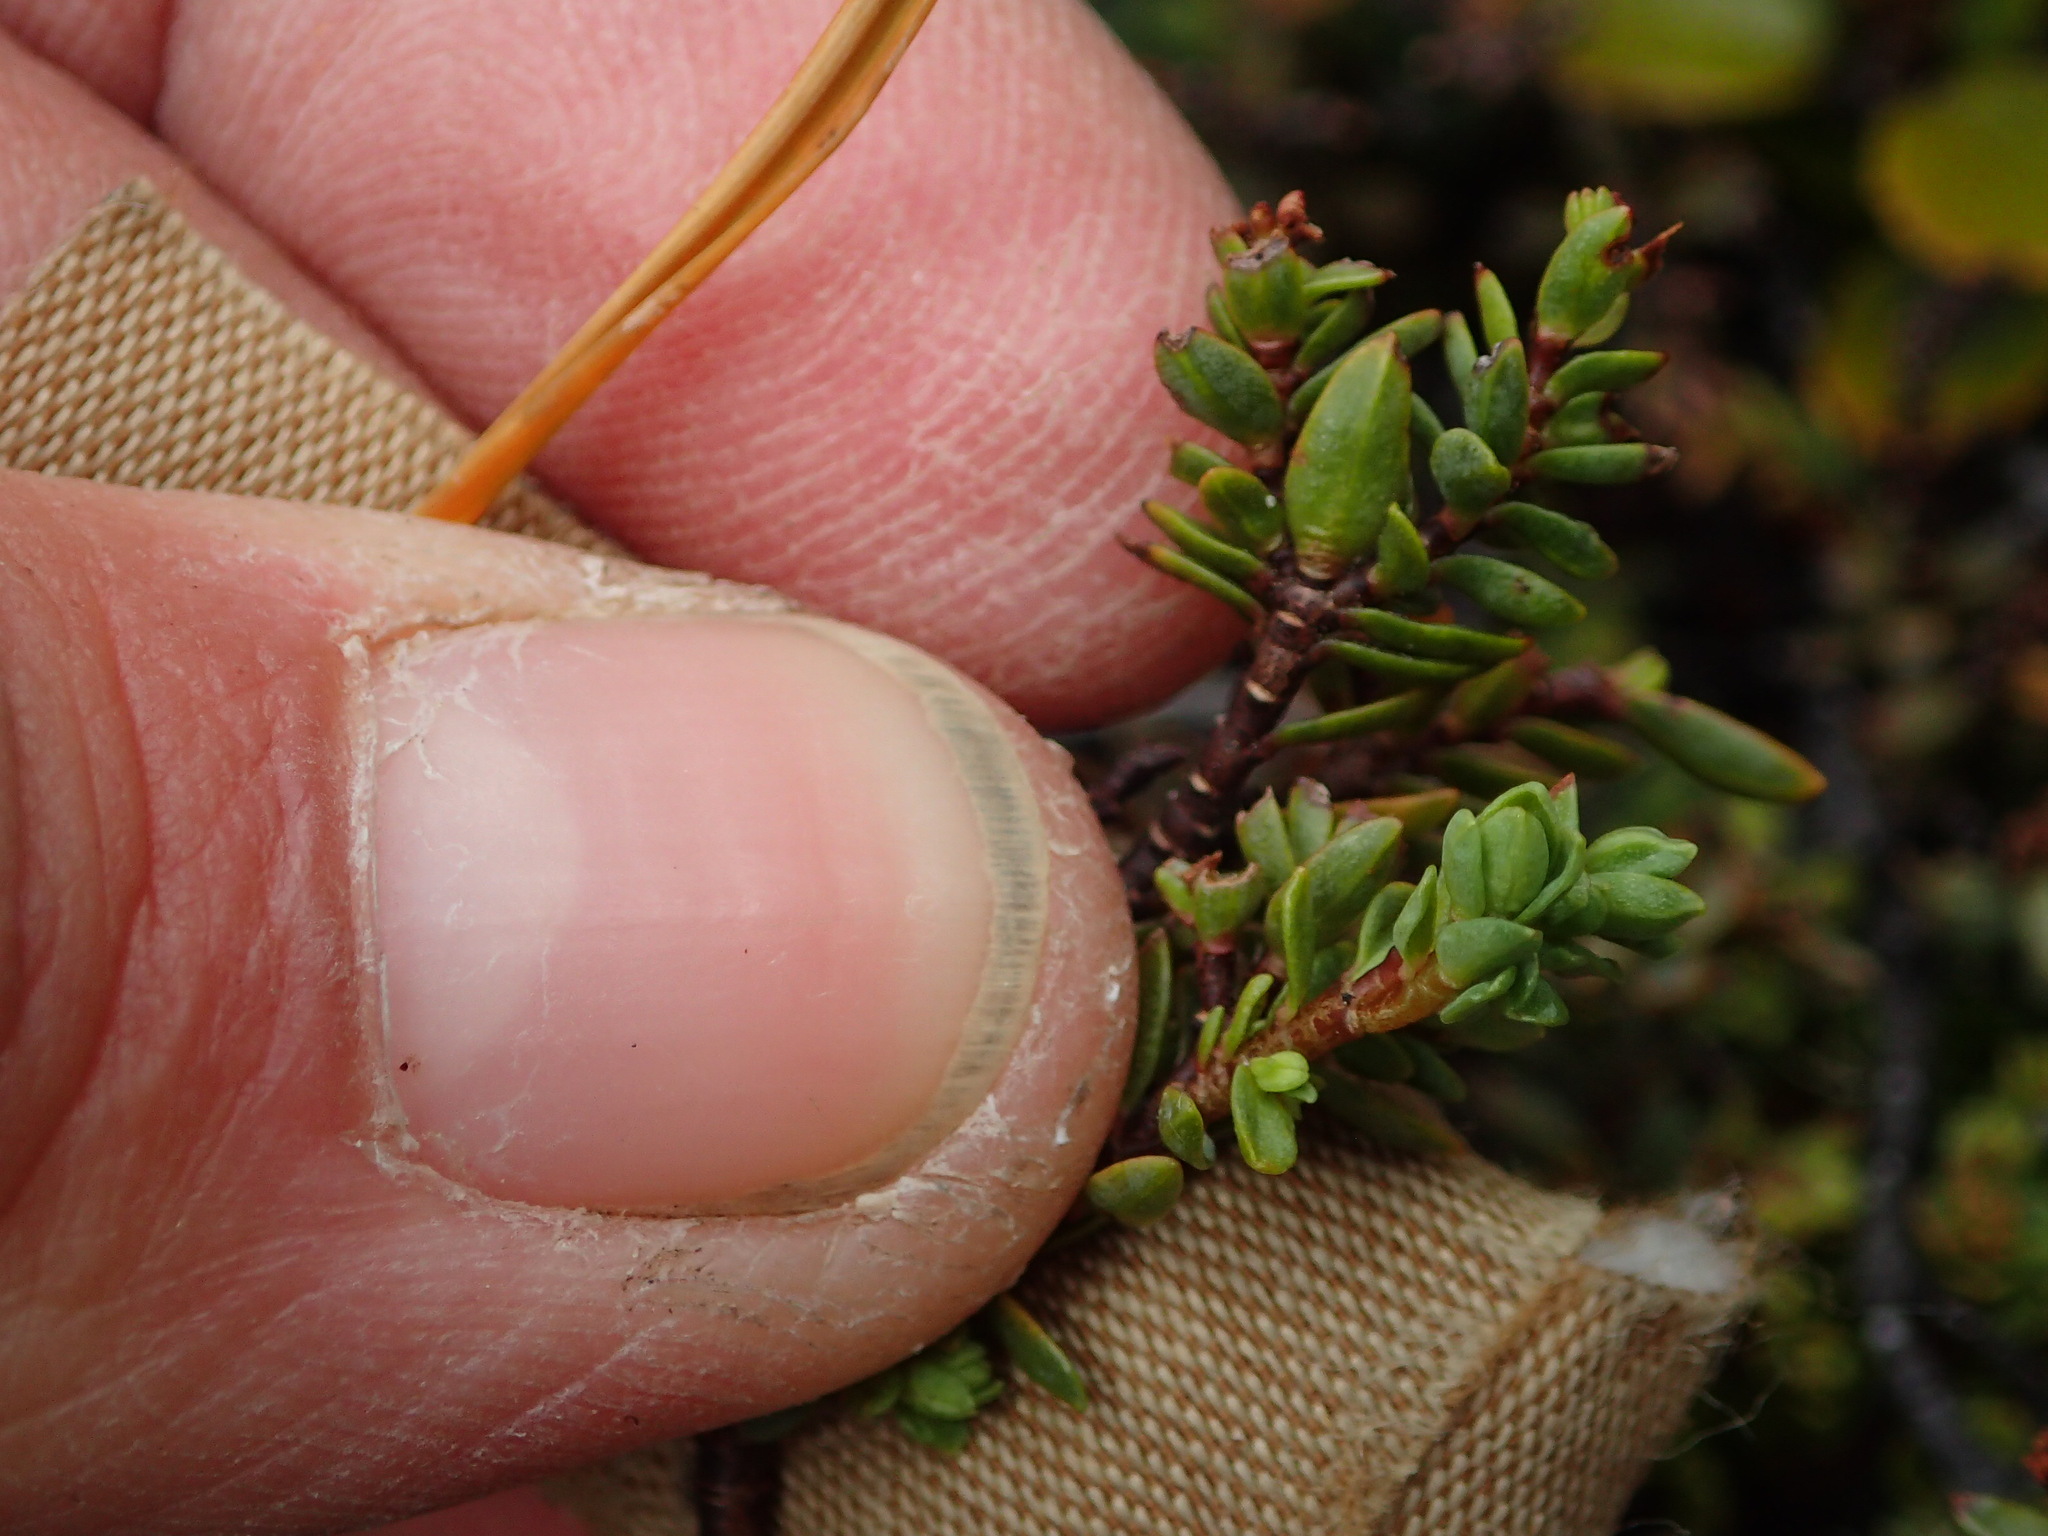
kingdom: Plantae
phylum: Tracheophyta
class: Magnoliopsida
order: Lamiales
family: Plantaginaceae
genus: Veronica
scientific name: Veronica pimeleoides
